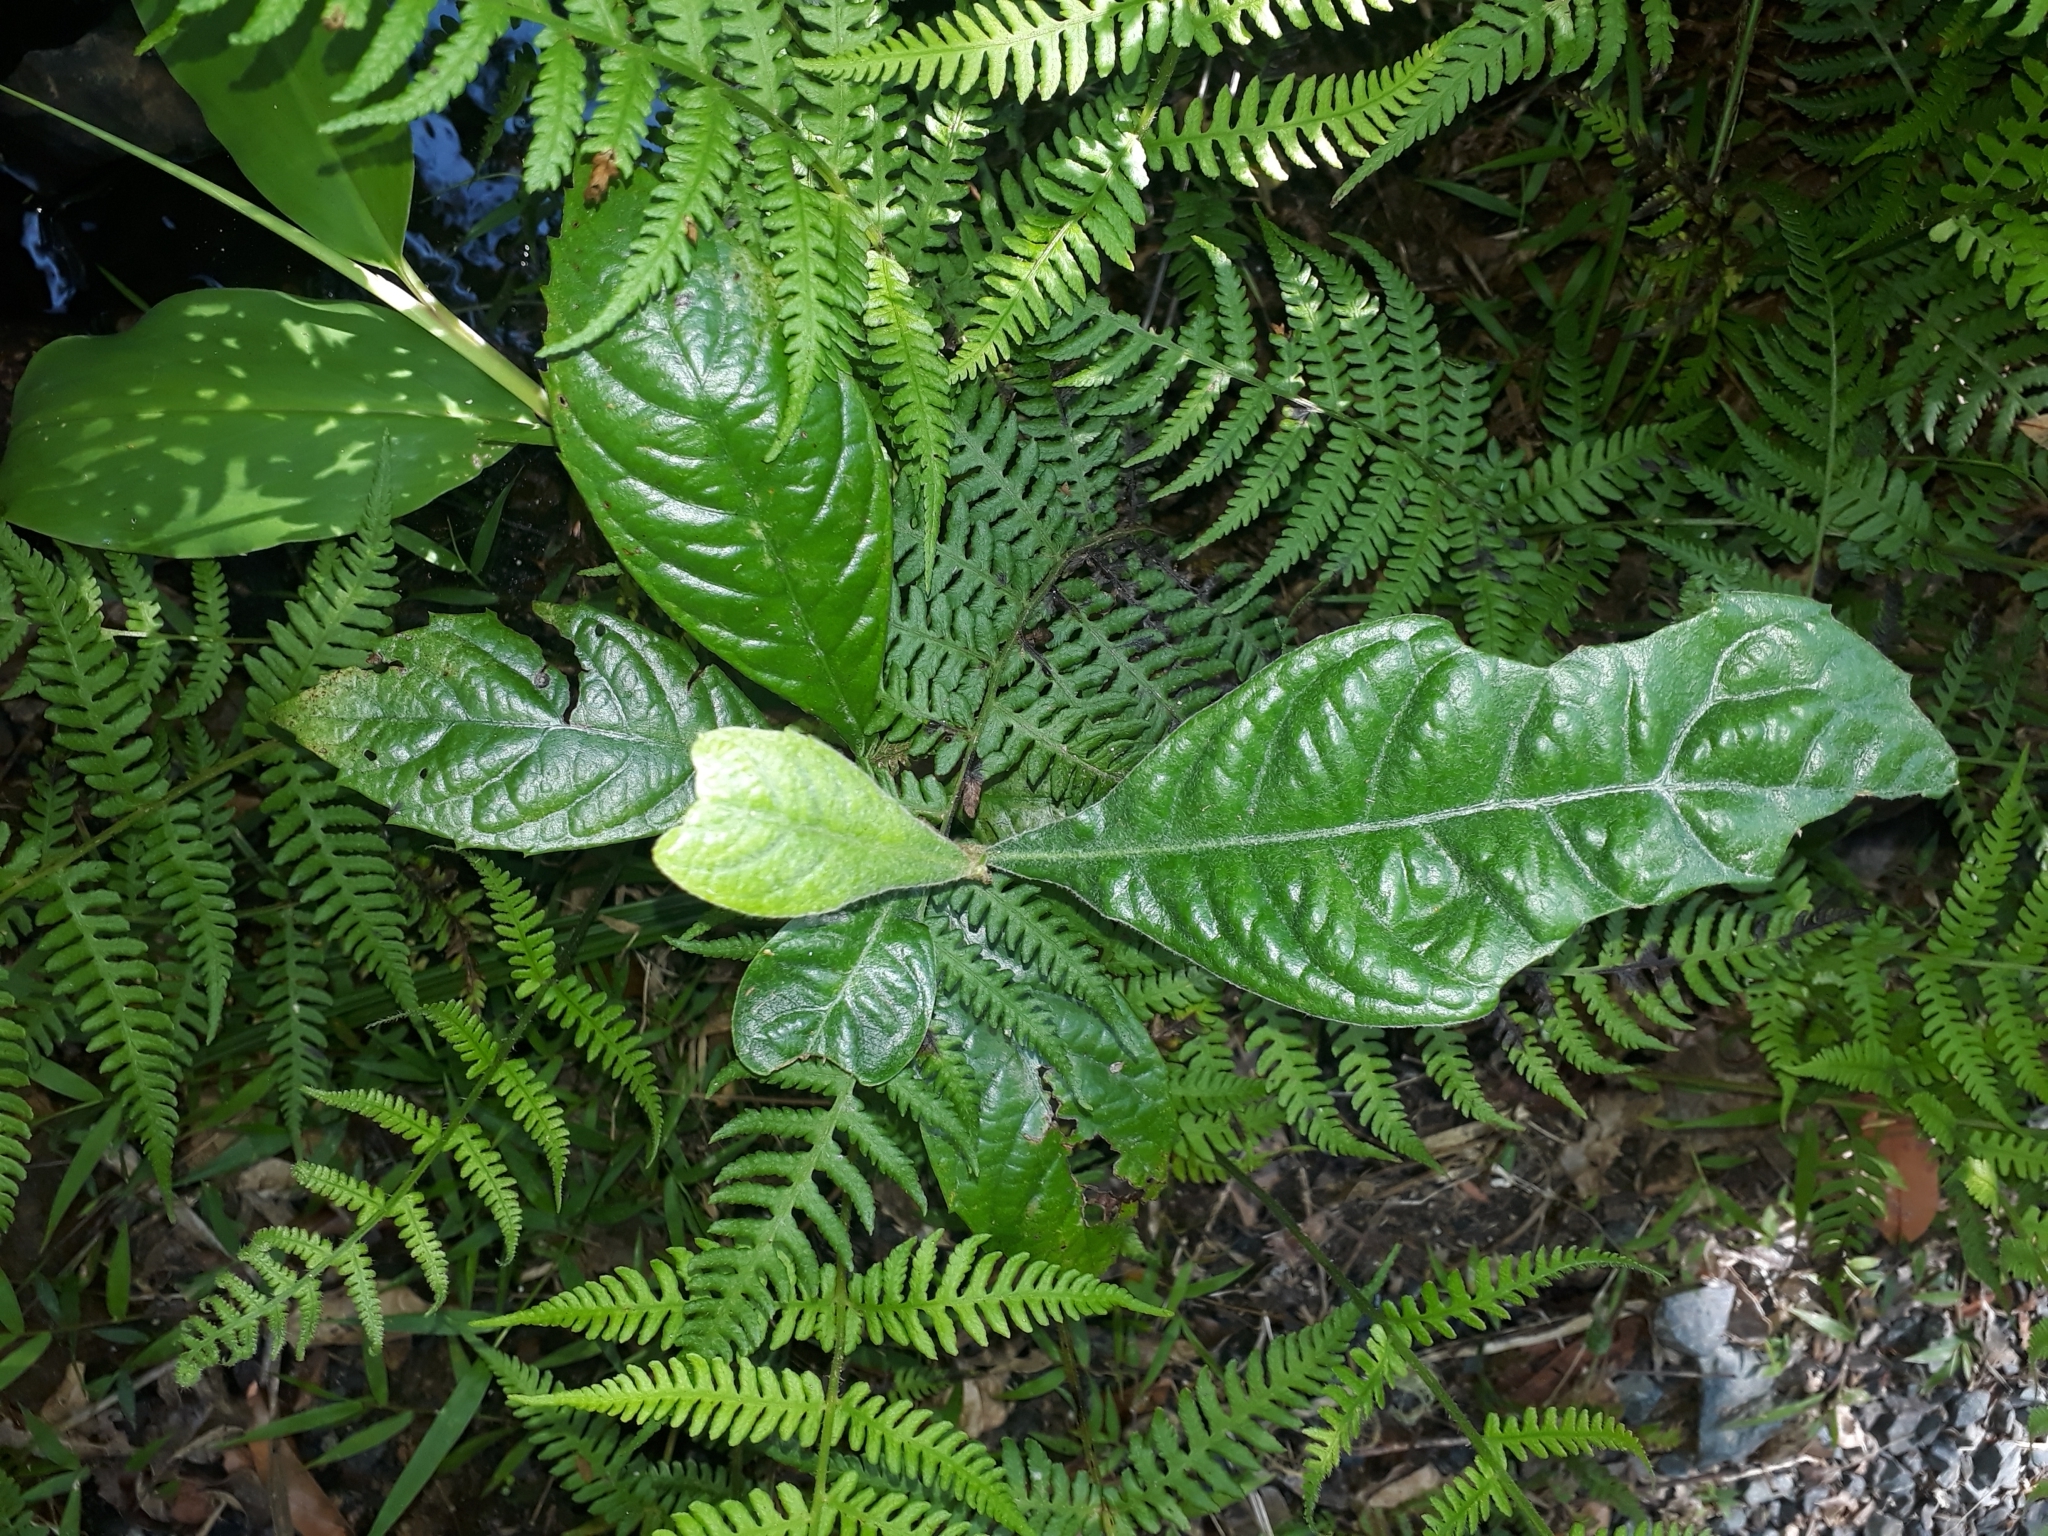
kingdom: Plantae
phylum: Tracheophyta
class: Magnoliopsida
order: Rosales
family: Rosaceae
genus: Rhaphiolepis
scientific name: Rhaphiolepis bibas
